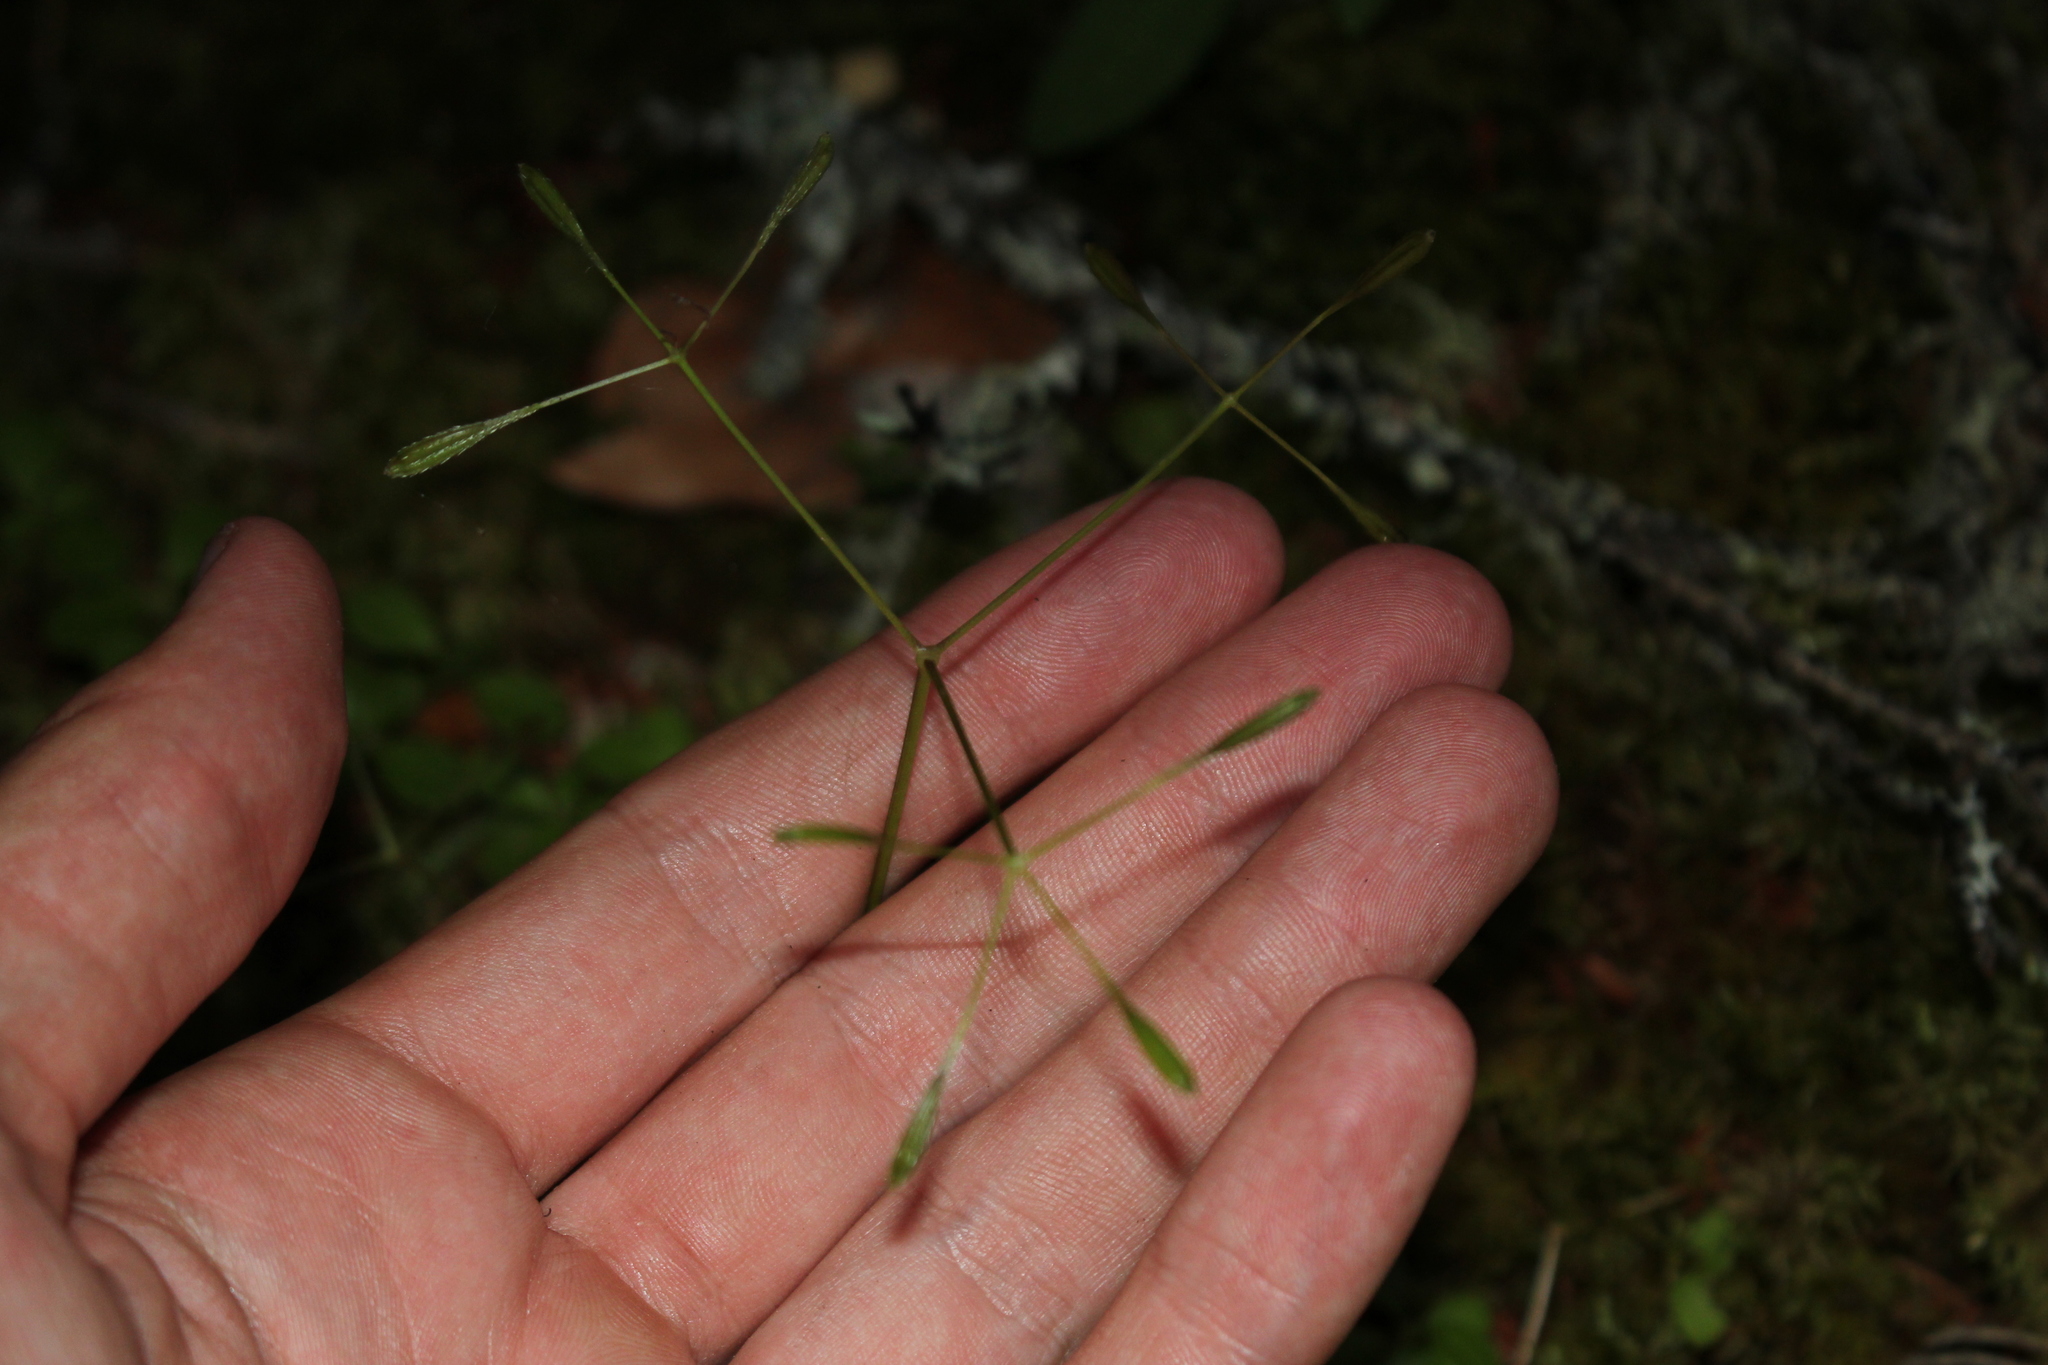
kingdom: Plantae
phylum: Tracheophyta
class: Magnoliopsida
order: Apiales
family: Apiaceae
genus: Osmorhiza
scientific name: Osmorhiza depauperata
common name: Blunt sweet cicely
